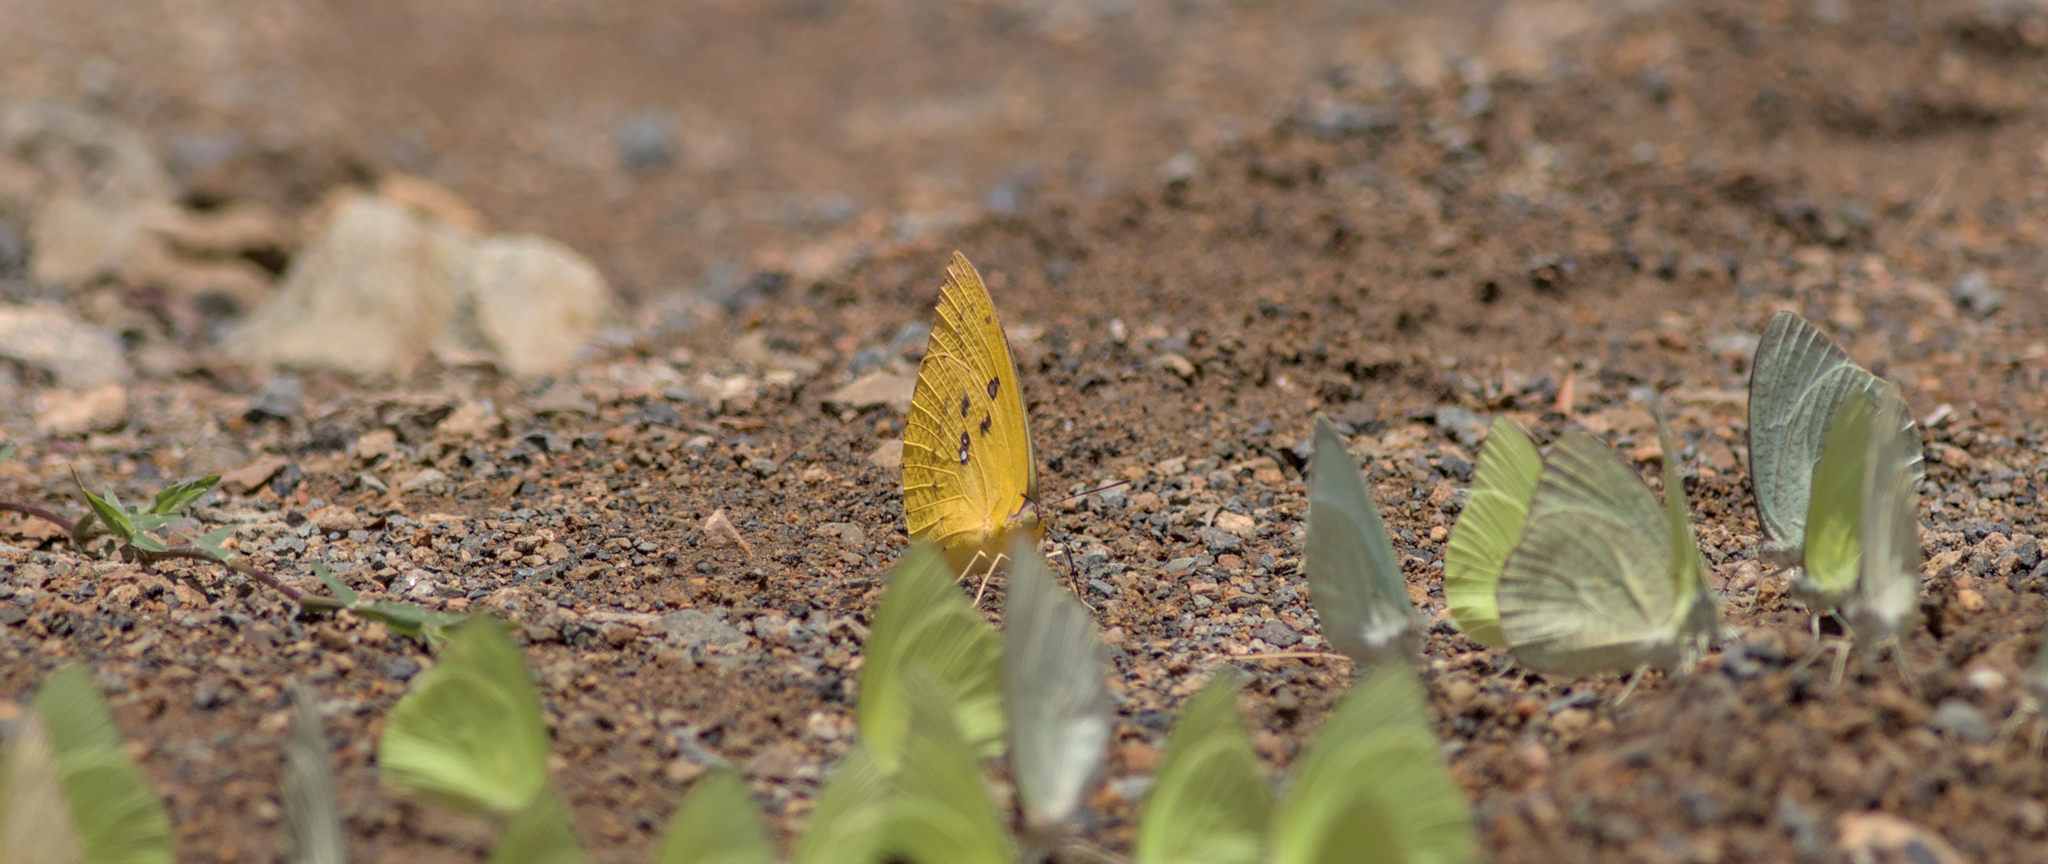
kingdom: Animalia
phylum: Arthropoda
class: Insecta
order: Lepidoptera
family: Pieridae
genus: Catopsilia
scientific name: Catopsilia pomona
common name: Common emigrant
